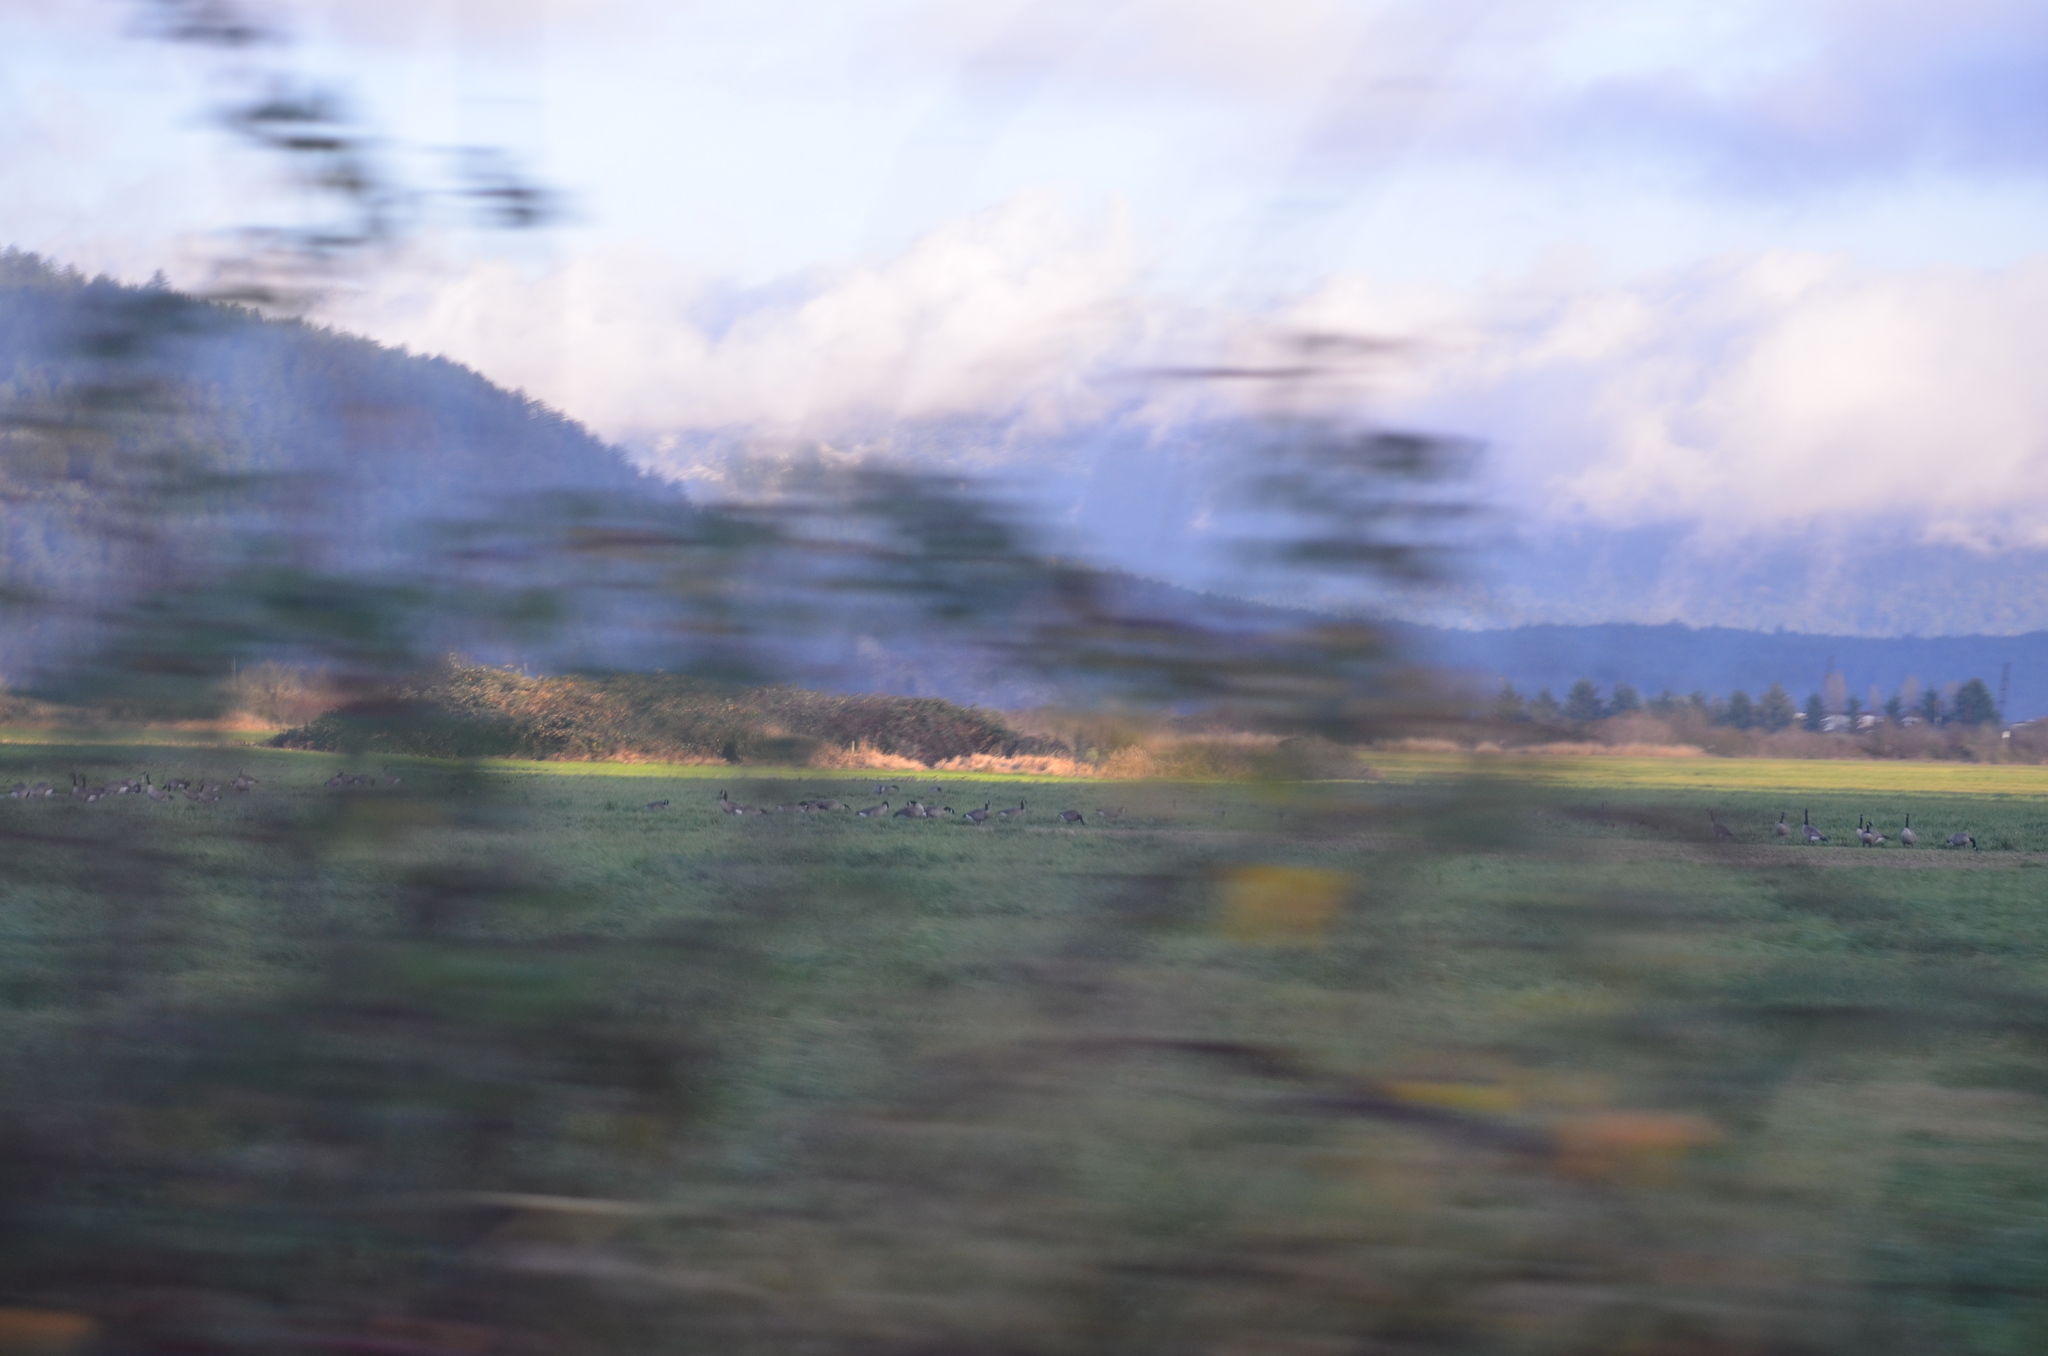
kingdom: Animalia
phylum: Chordata
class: Aves
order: Anseriformes
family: Anatidae
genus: Branta
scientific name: Branta canadensis
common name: Canada goose
